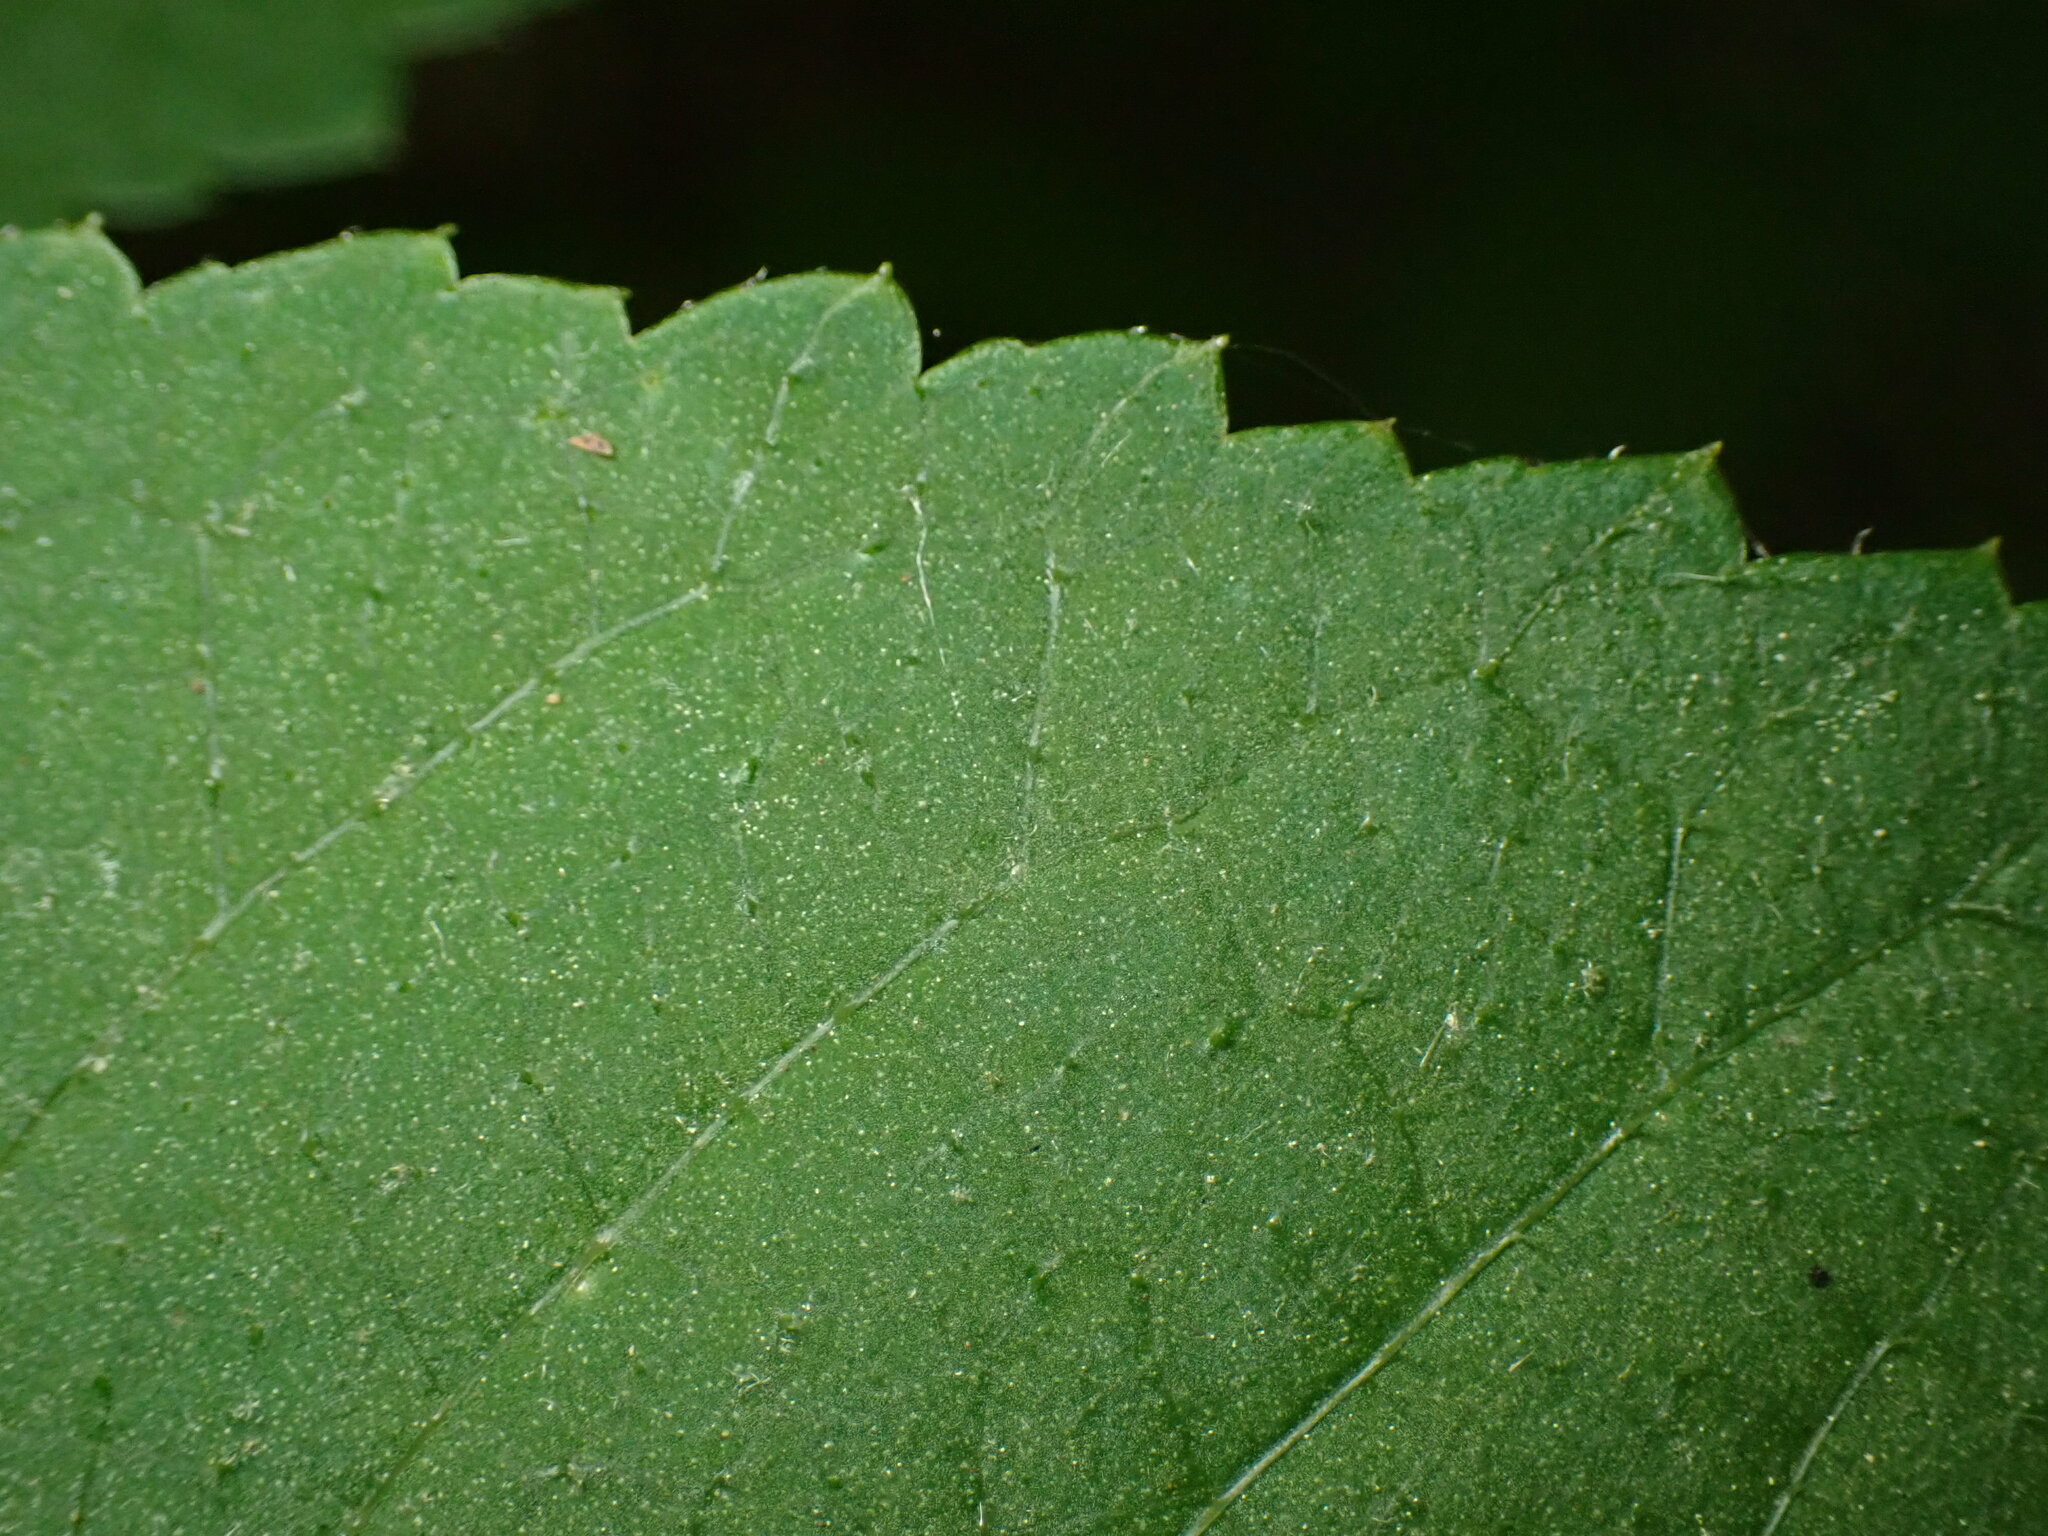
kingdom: Plantae
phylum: Tracheophyta
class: Magnoliopsida
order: Apiales
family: Araliaceae
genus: Aralia
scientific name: Aralia elata
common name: Japanese angelica-tree
